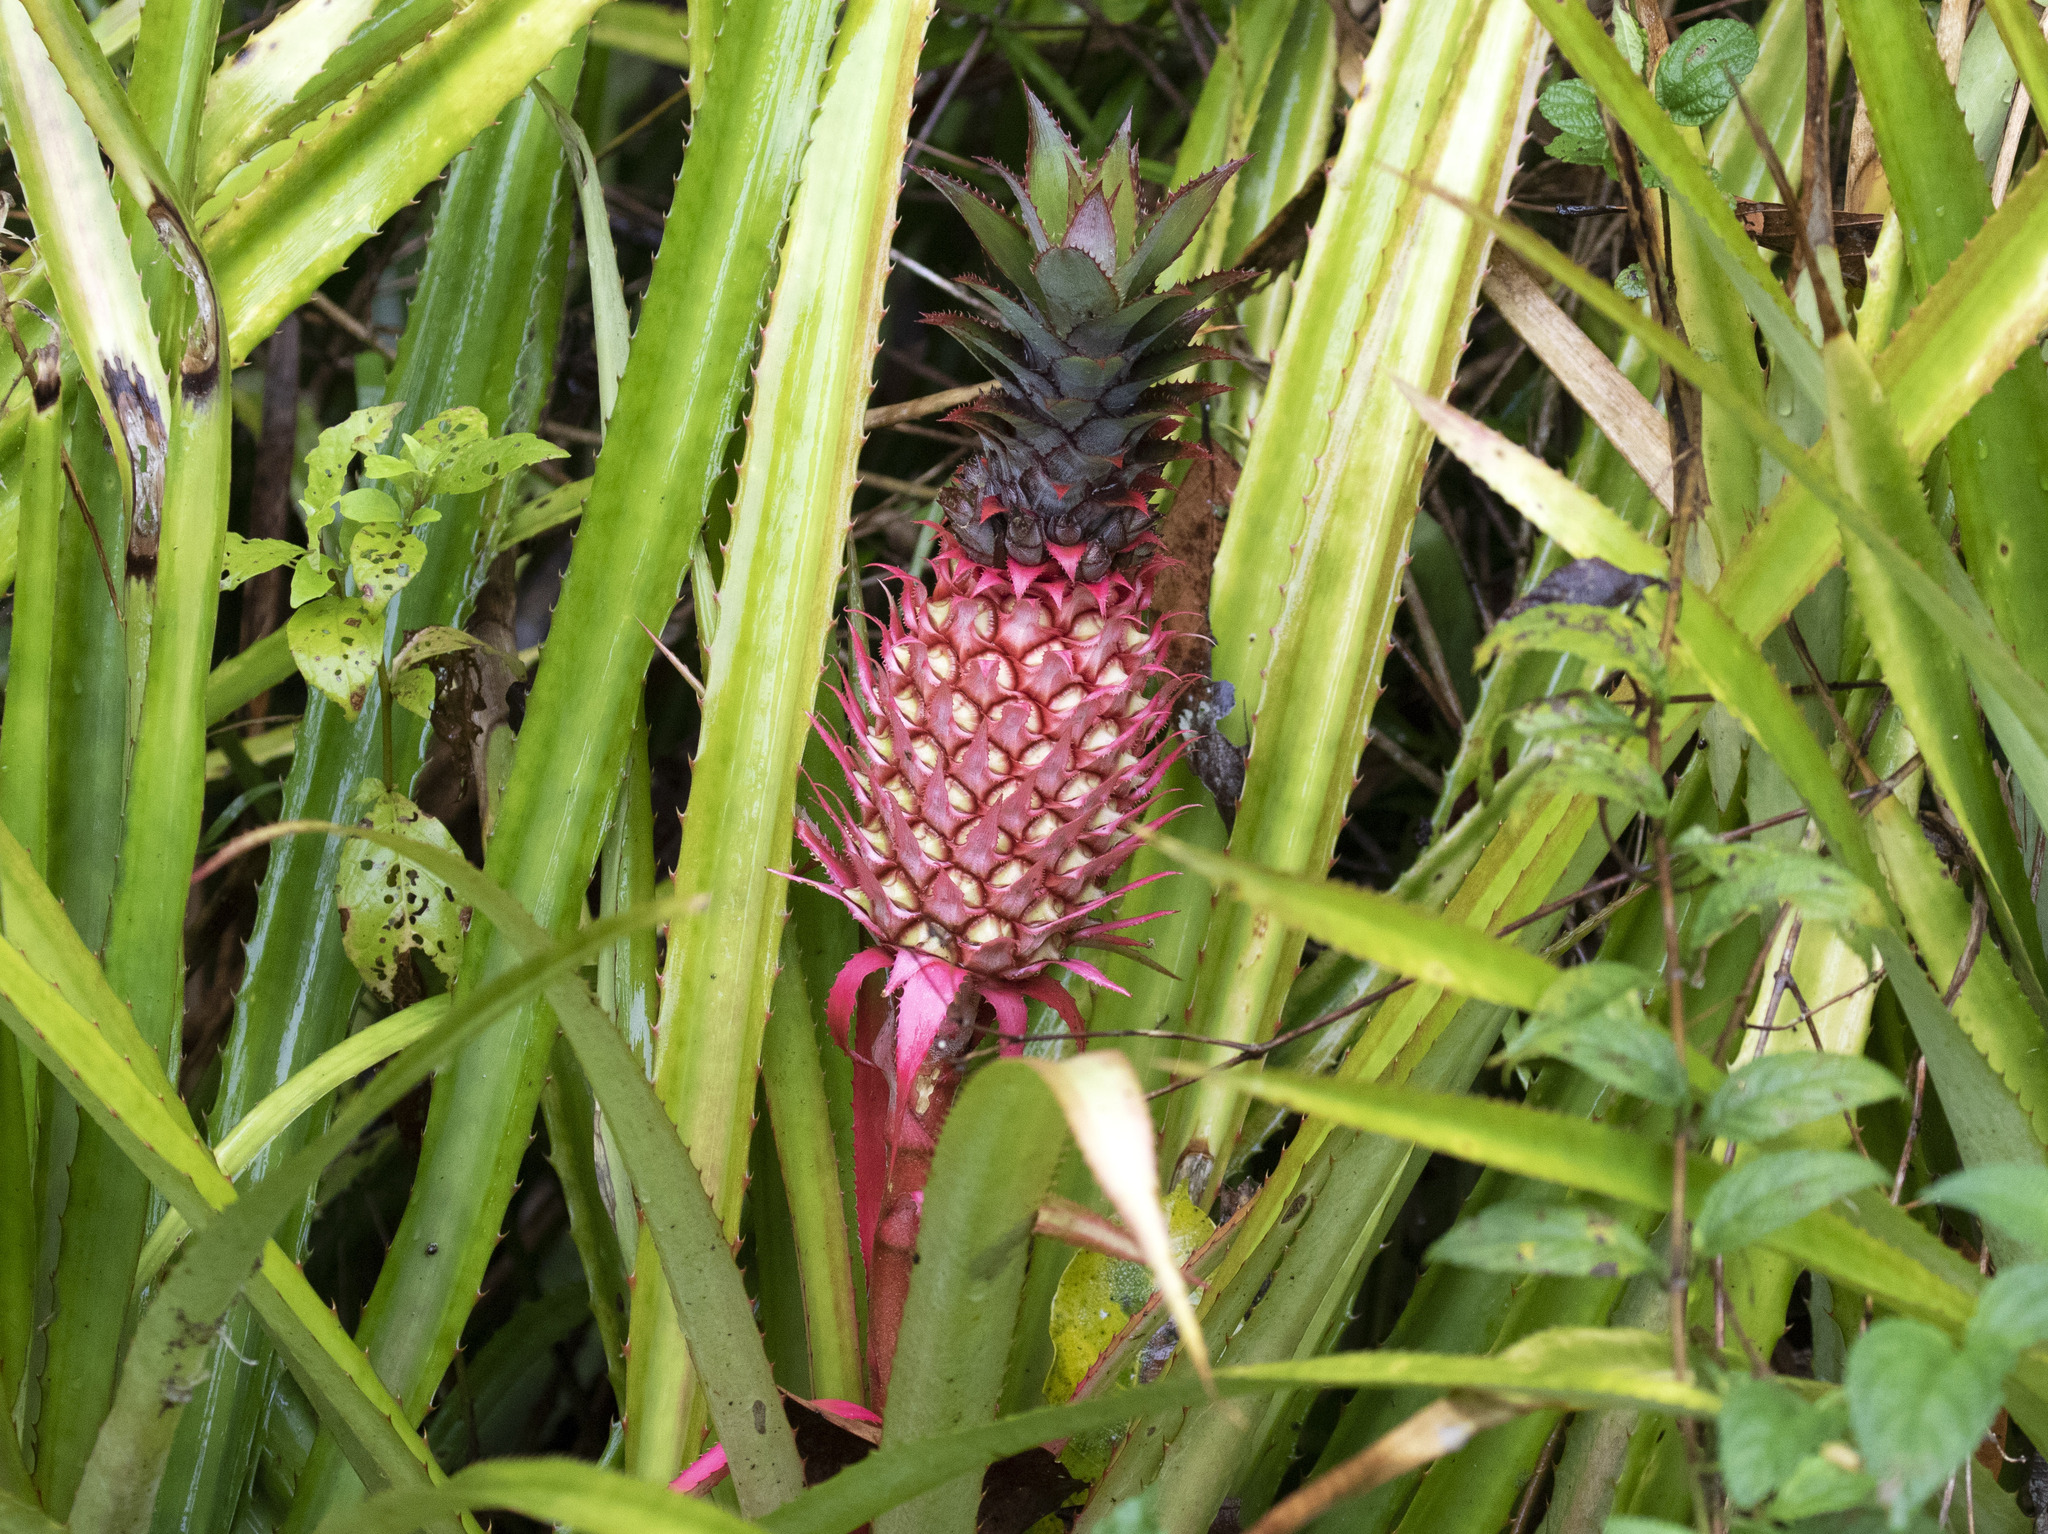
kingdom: Plantae
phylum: Tracheophyta
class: Liliopsida
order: Poales
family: Bromeliaceae
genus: Ananas
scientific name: Ananas comosus
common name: Pineapple
